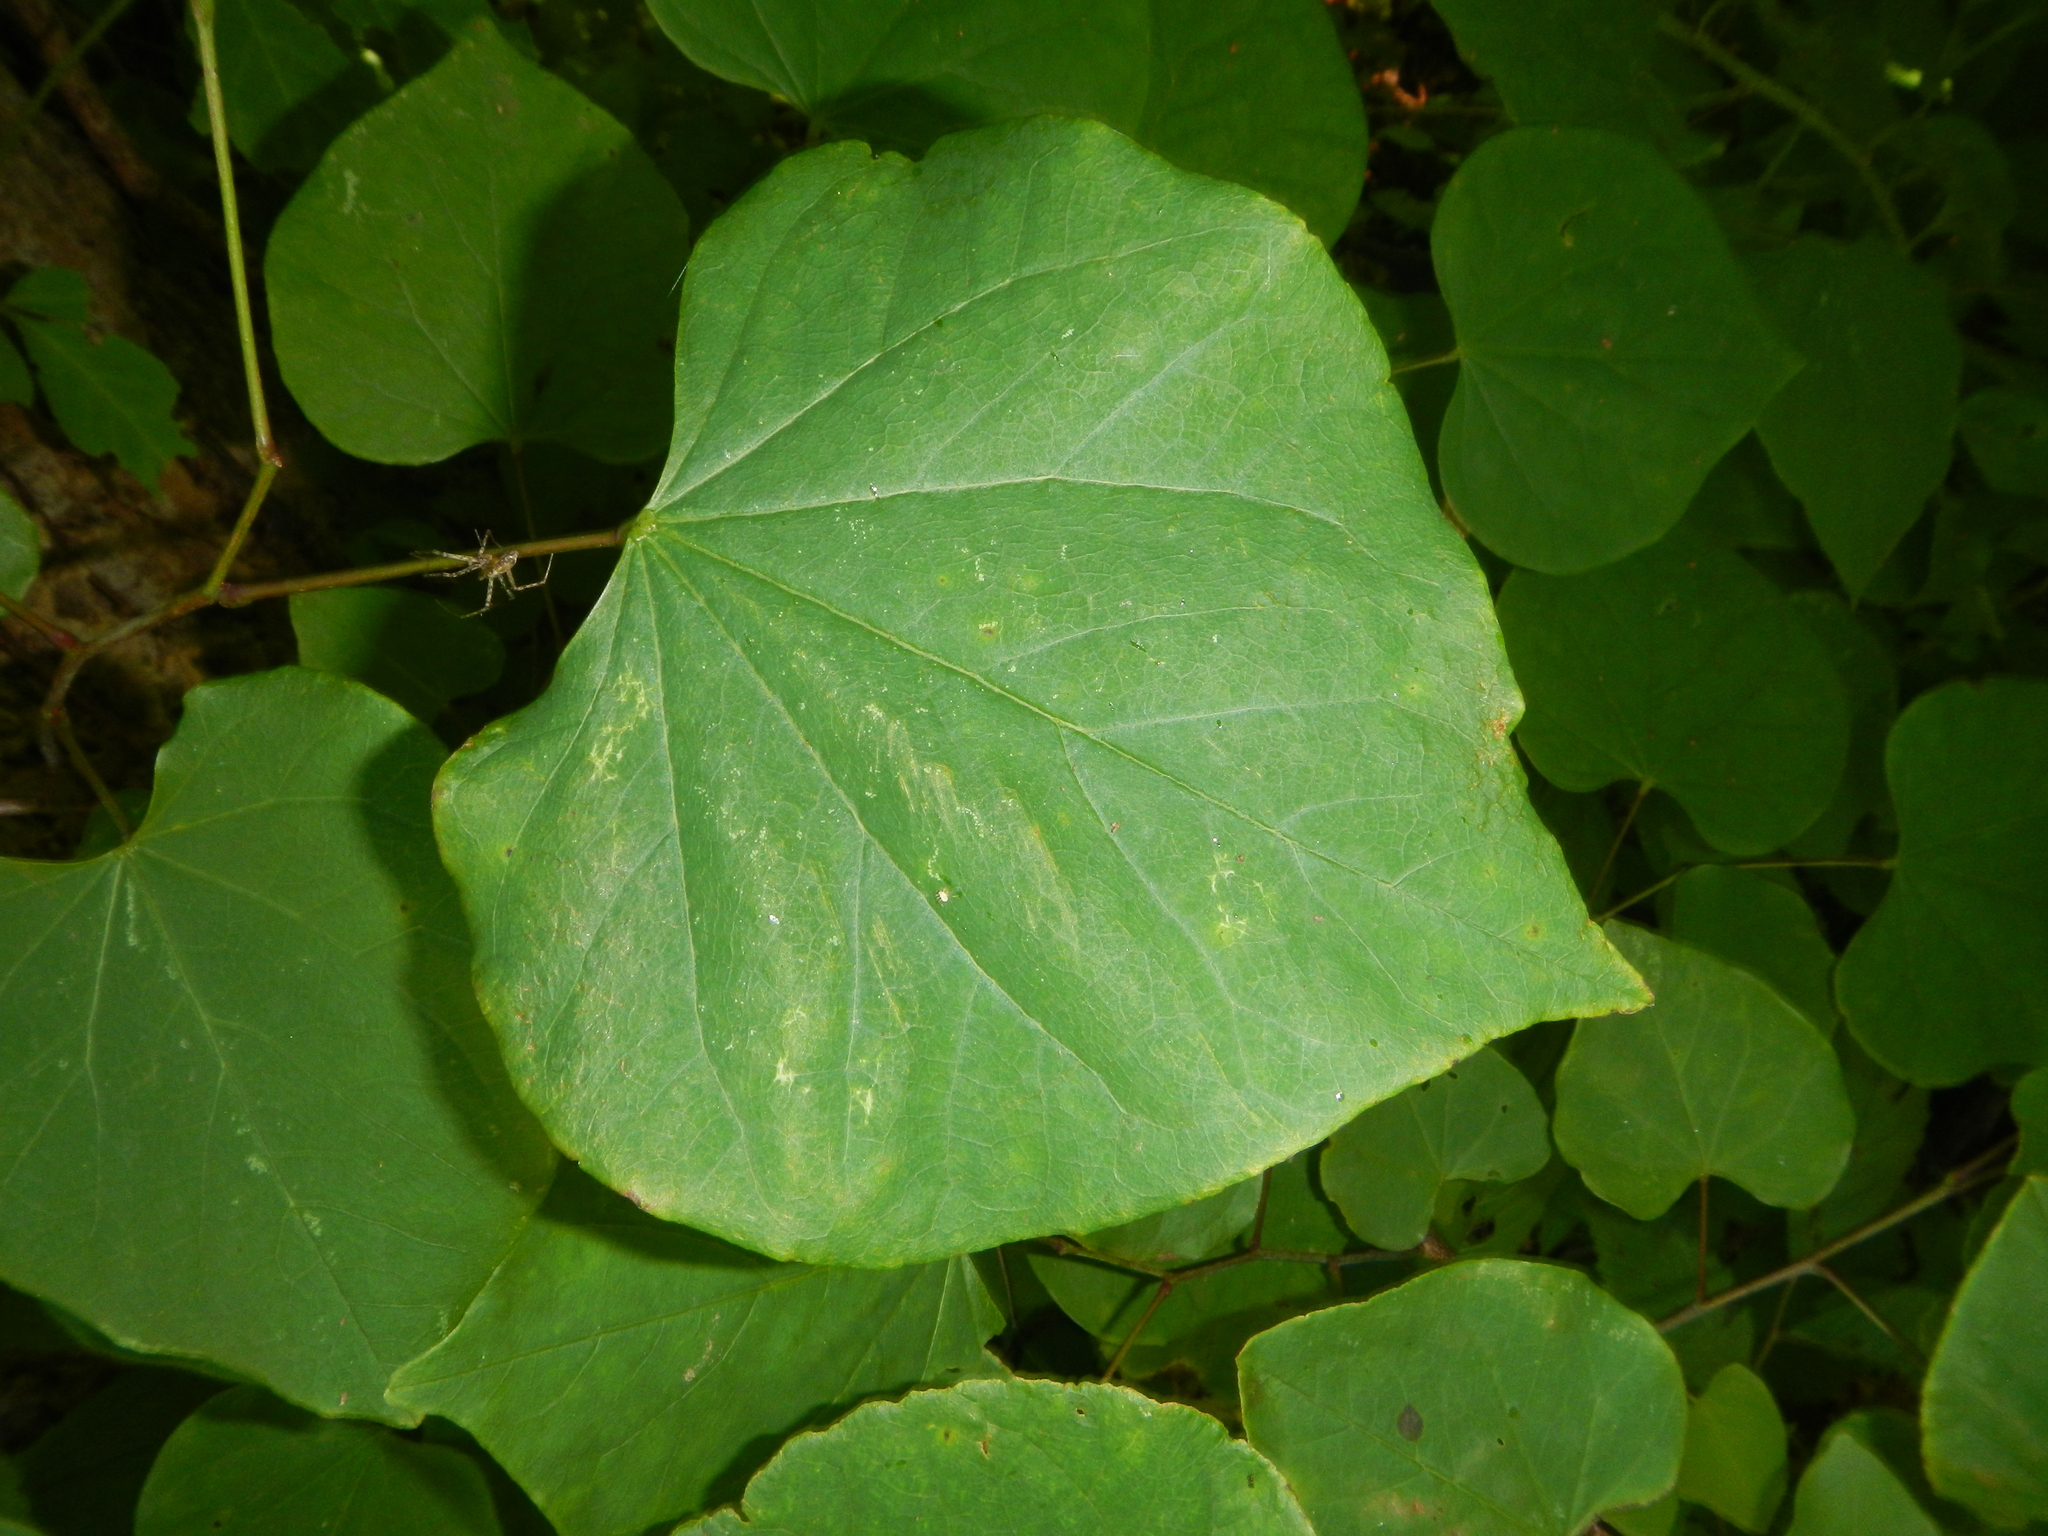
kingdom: Plantae
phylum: Tracheophyta
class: Magnoliopsida
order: Fabales
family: Fabaceae
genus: Cercis
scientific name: Cercis canadensis
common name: Eastern redbud
